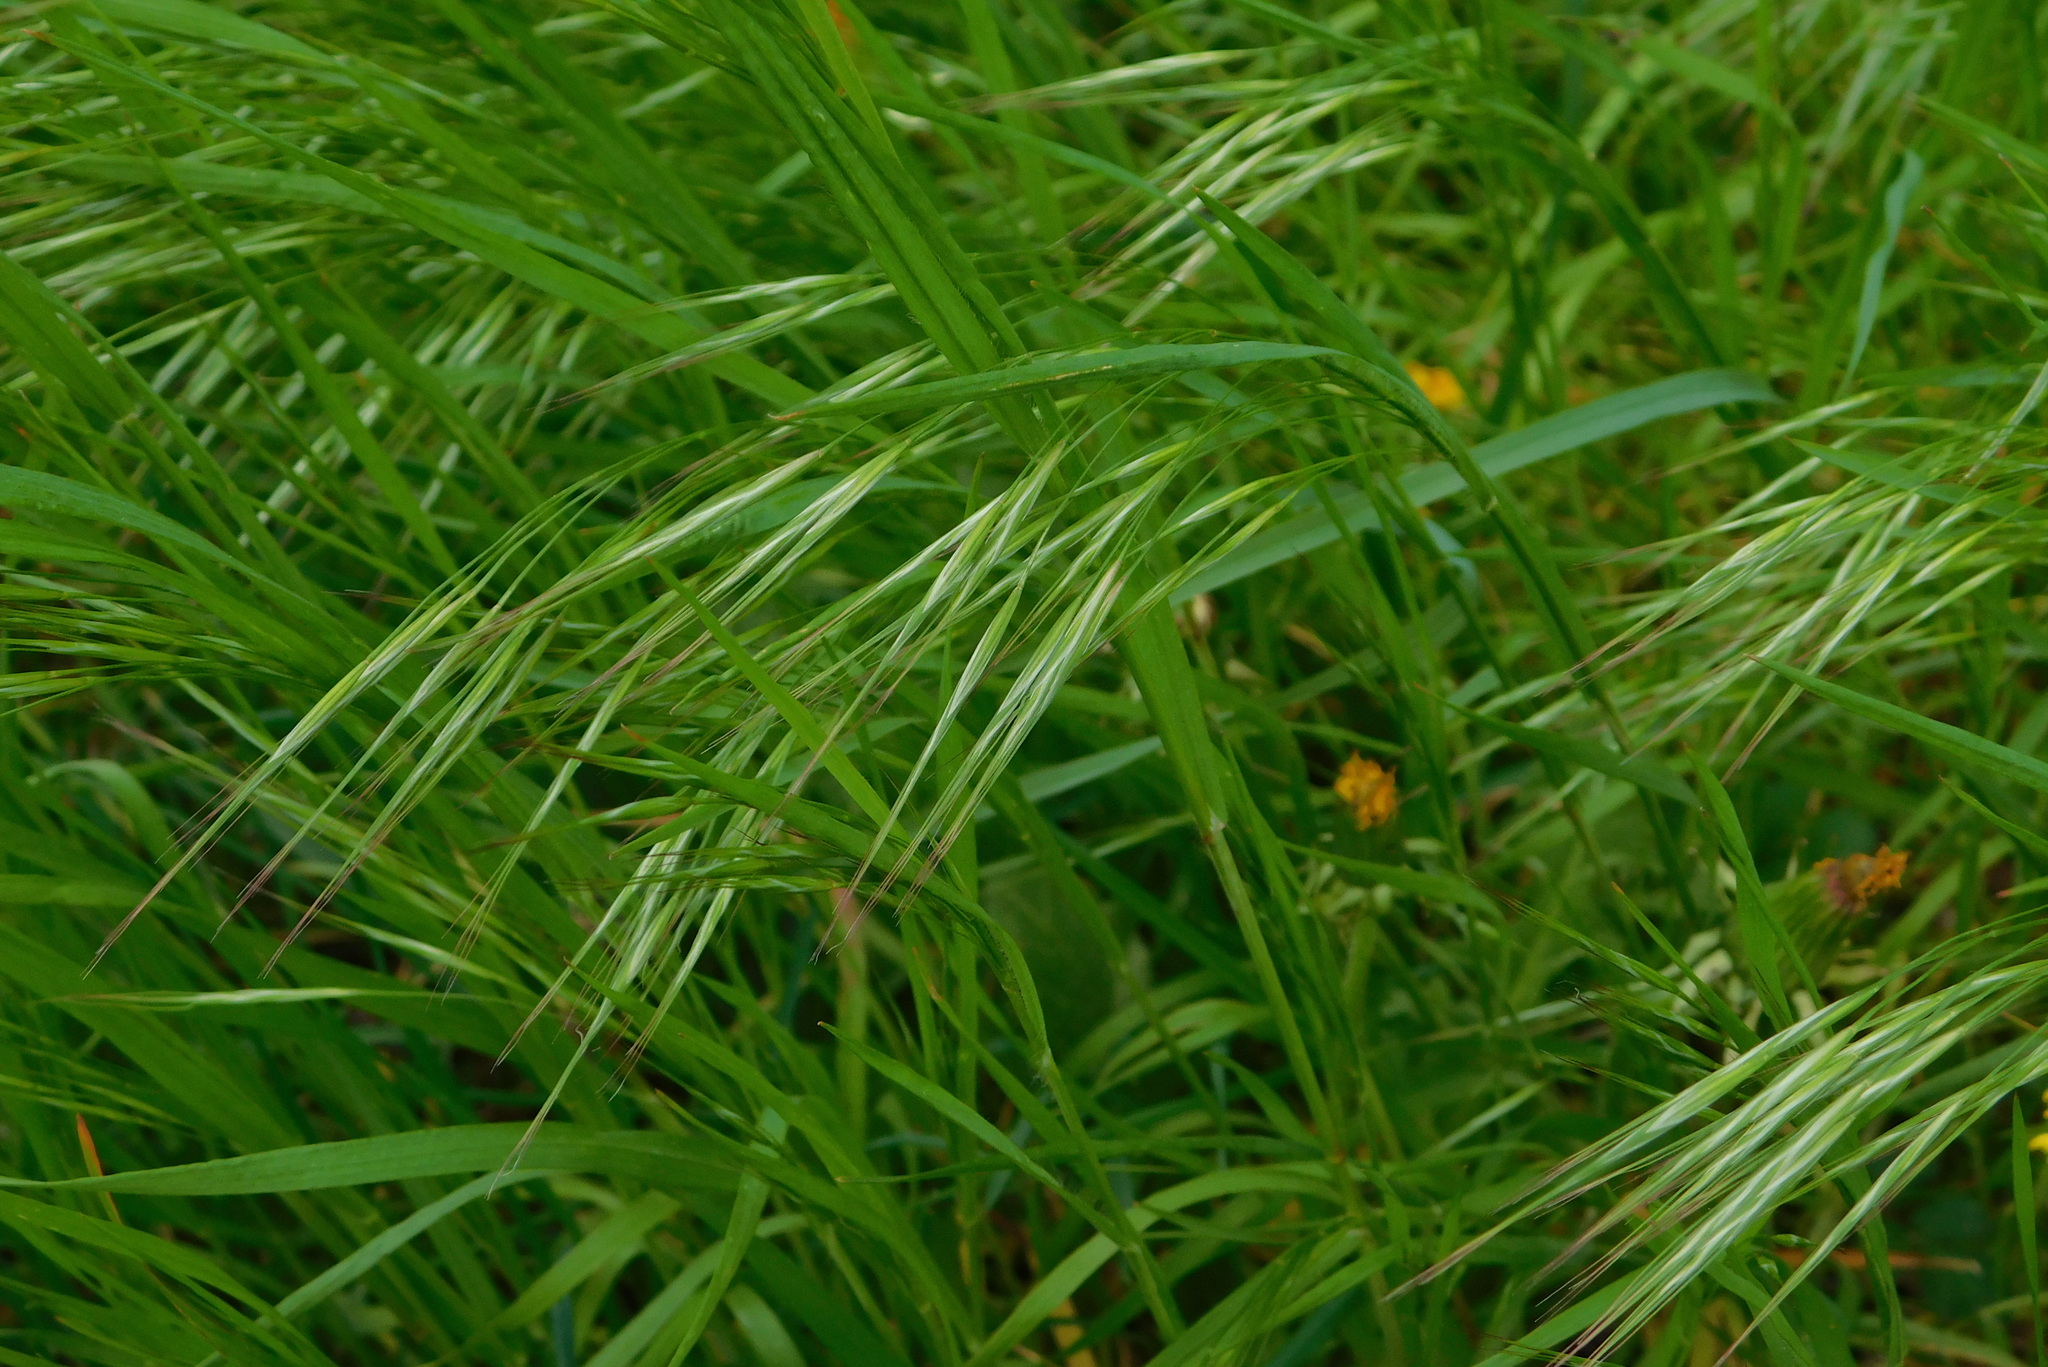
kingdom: Plantae
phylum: Tracheophyta
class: Liliopsida
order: Poales
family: Poaceae
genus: Bromus
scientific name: Bromus sterilis
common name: Poverty brome
